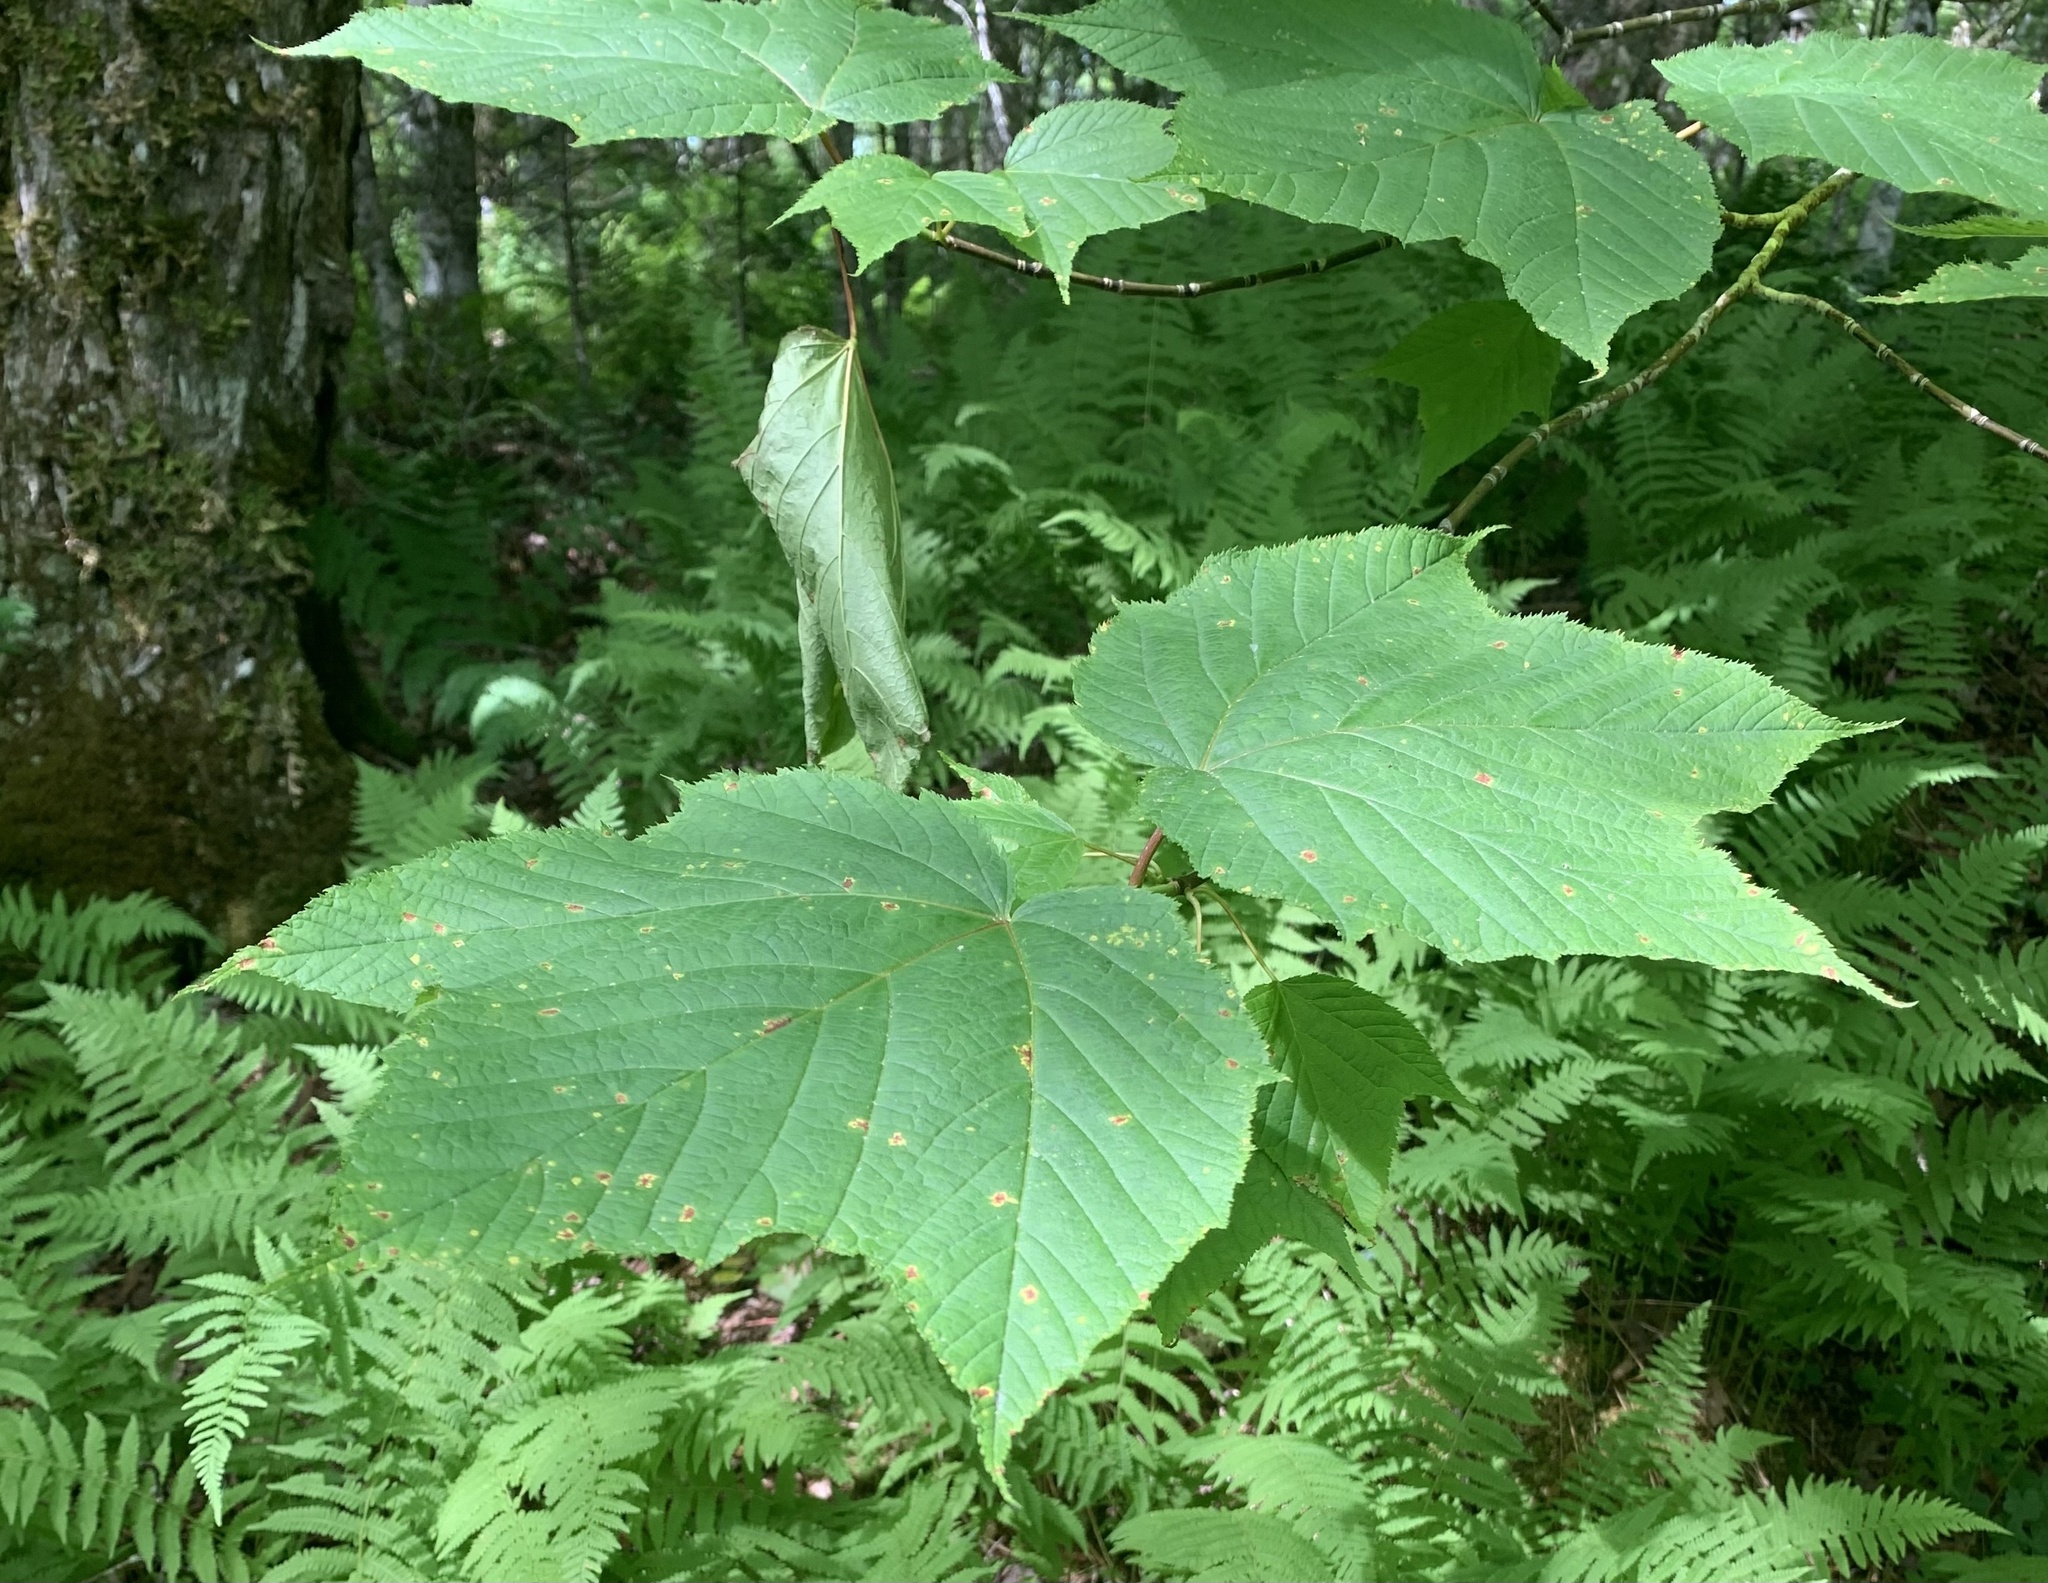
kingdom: Plantae
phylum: Tracheophyta
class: Magnoliopsida
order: Sapindales
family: Sapindaceae
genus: Acer
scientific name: Acer pensylvanicum
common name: Moosewood
